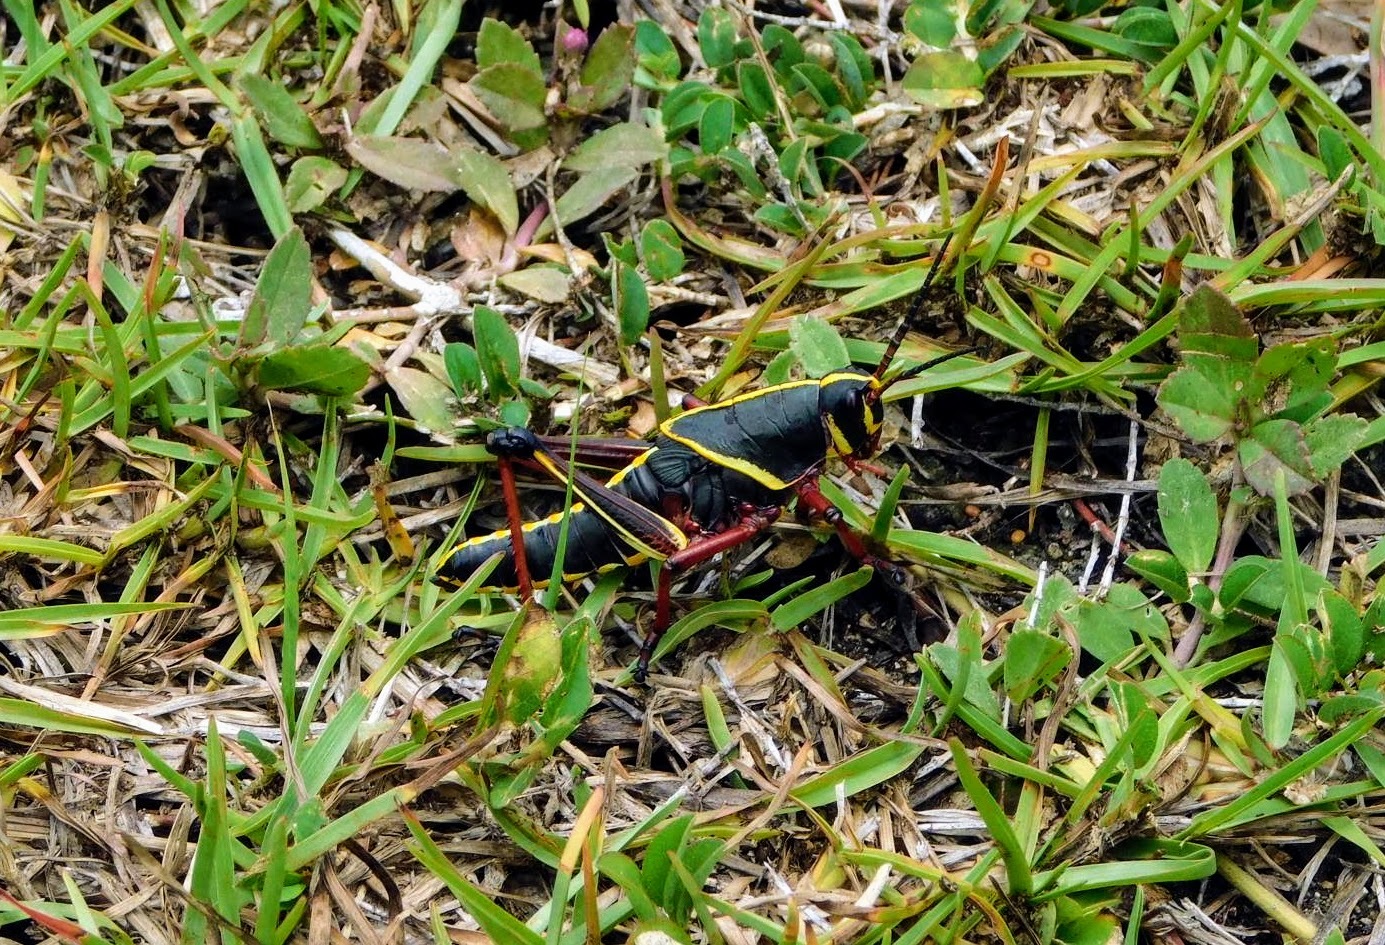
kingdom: Animalia
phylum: Arthropoda
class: Insecta
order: Orthoptera
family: Romaleidae
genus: Romalea
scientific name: Romalea microptera
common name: Eastern lubber grasshopper
